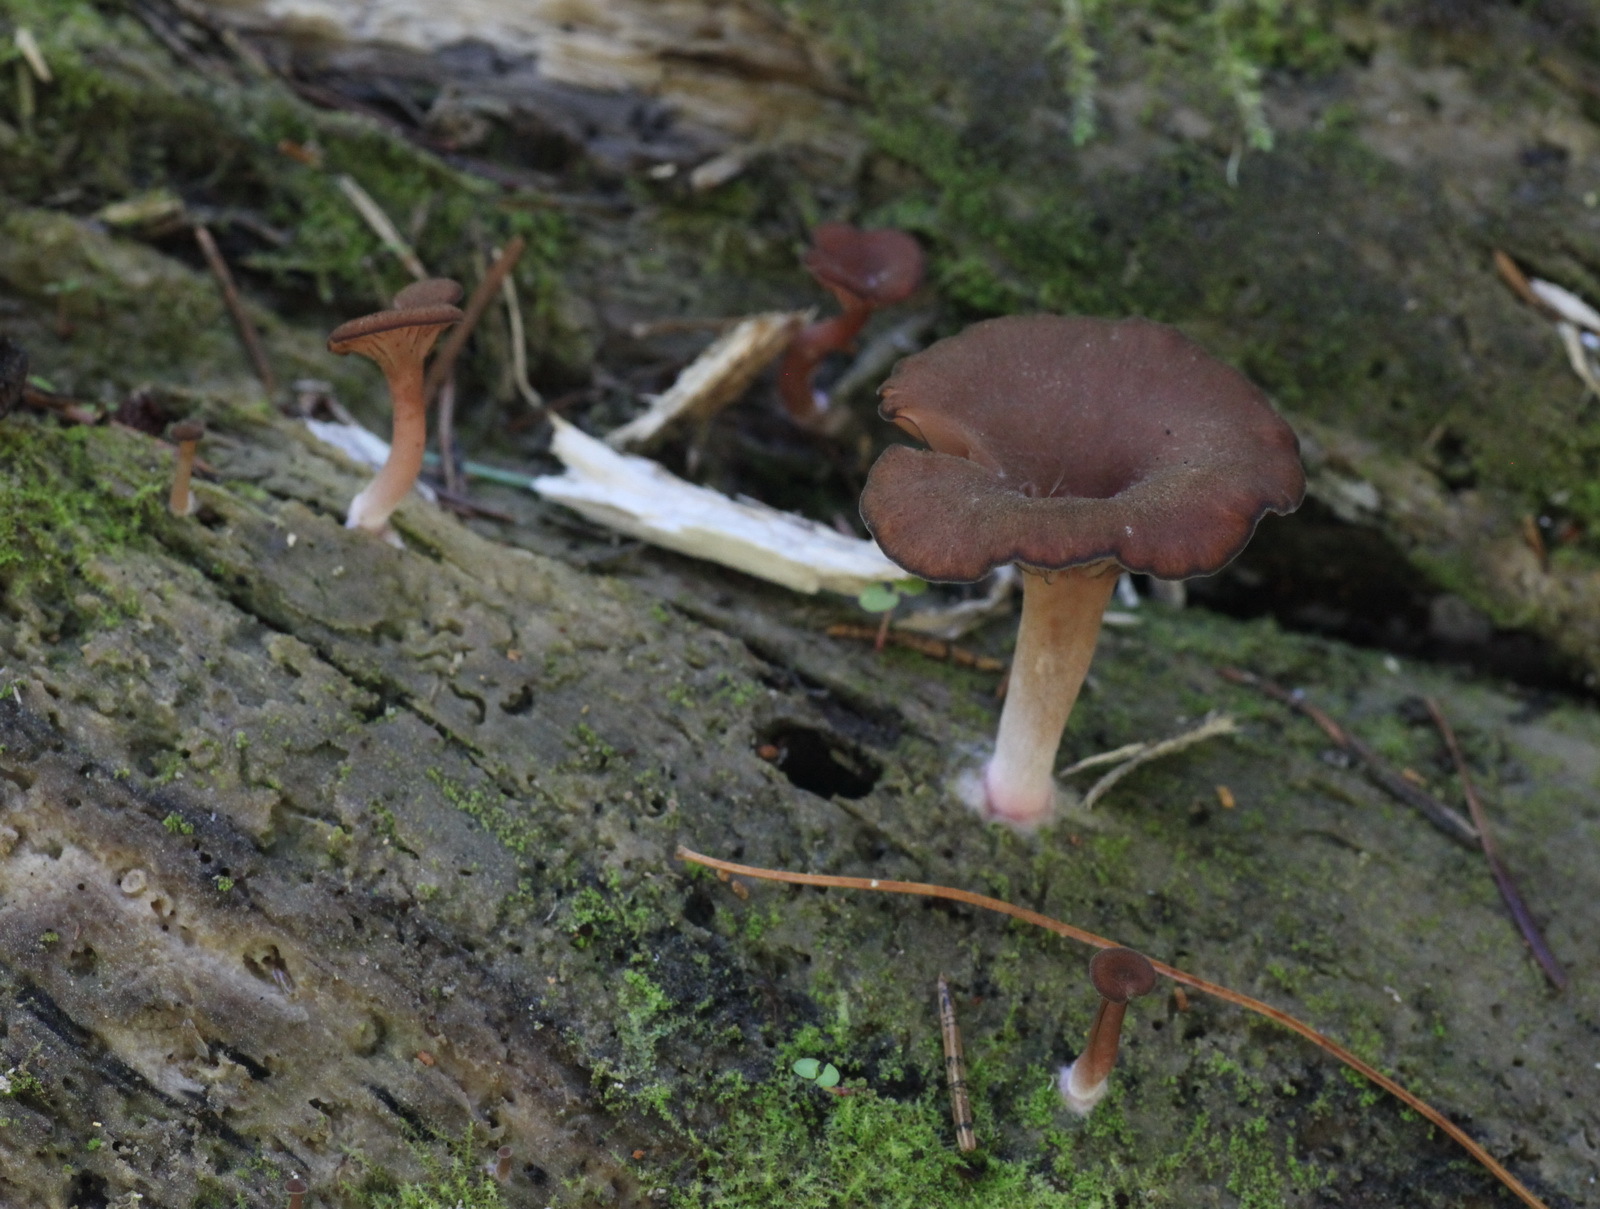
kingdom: Fungi
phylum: Basidiomycota
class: Agaricomycetes
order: Agaricales
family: Hygrophoraceae
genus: Arrhenia
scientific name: Arrhenia discorosea
